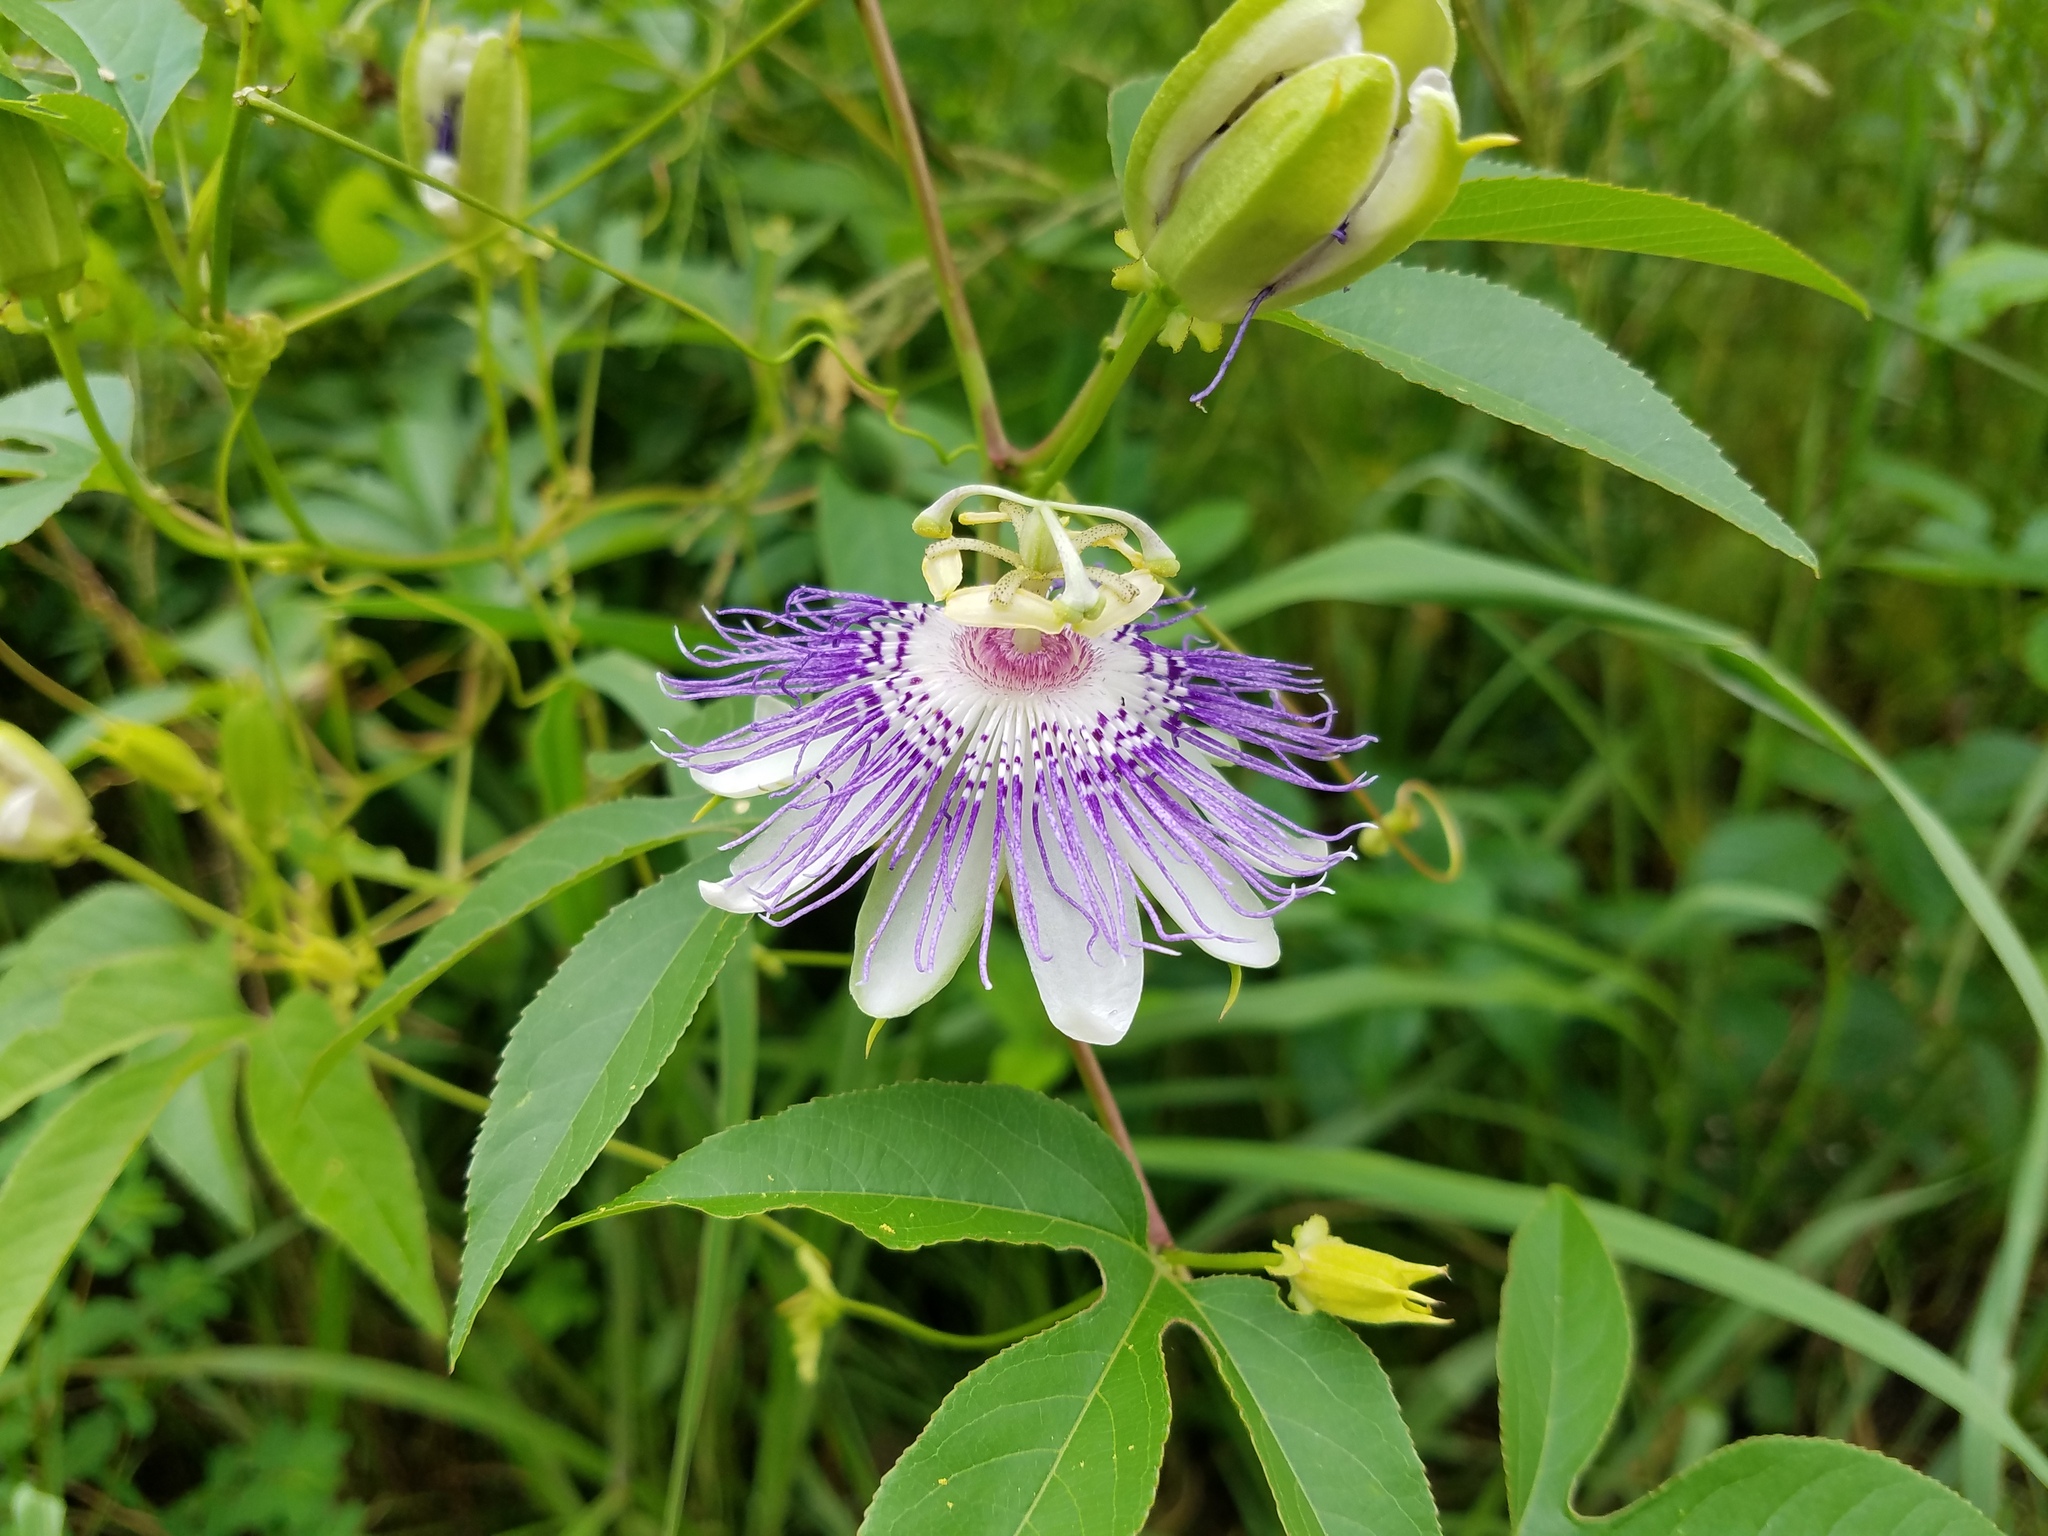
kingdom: Plantae
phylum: Tracheophyta
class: Magnoliopsida
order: Malpighiales
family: Passifloraceae
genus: Passiflora
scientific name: Passiflora incarnata
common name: Apricot-vine
